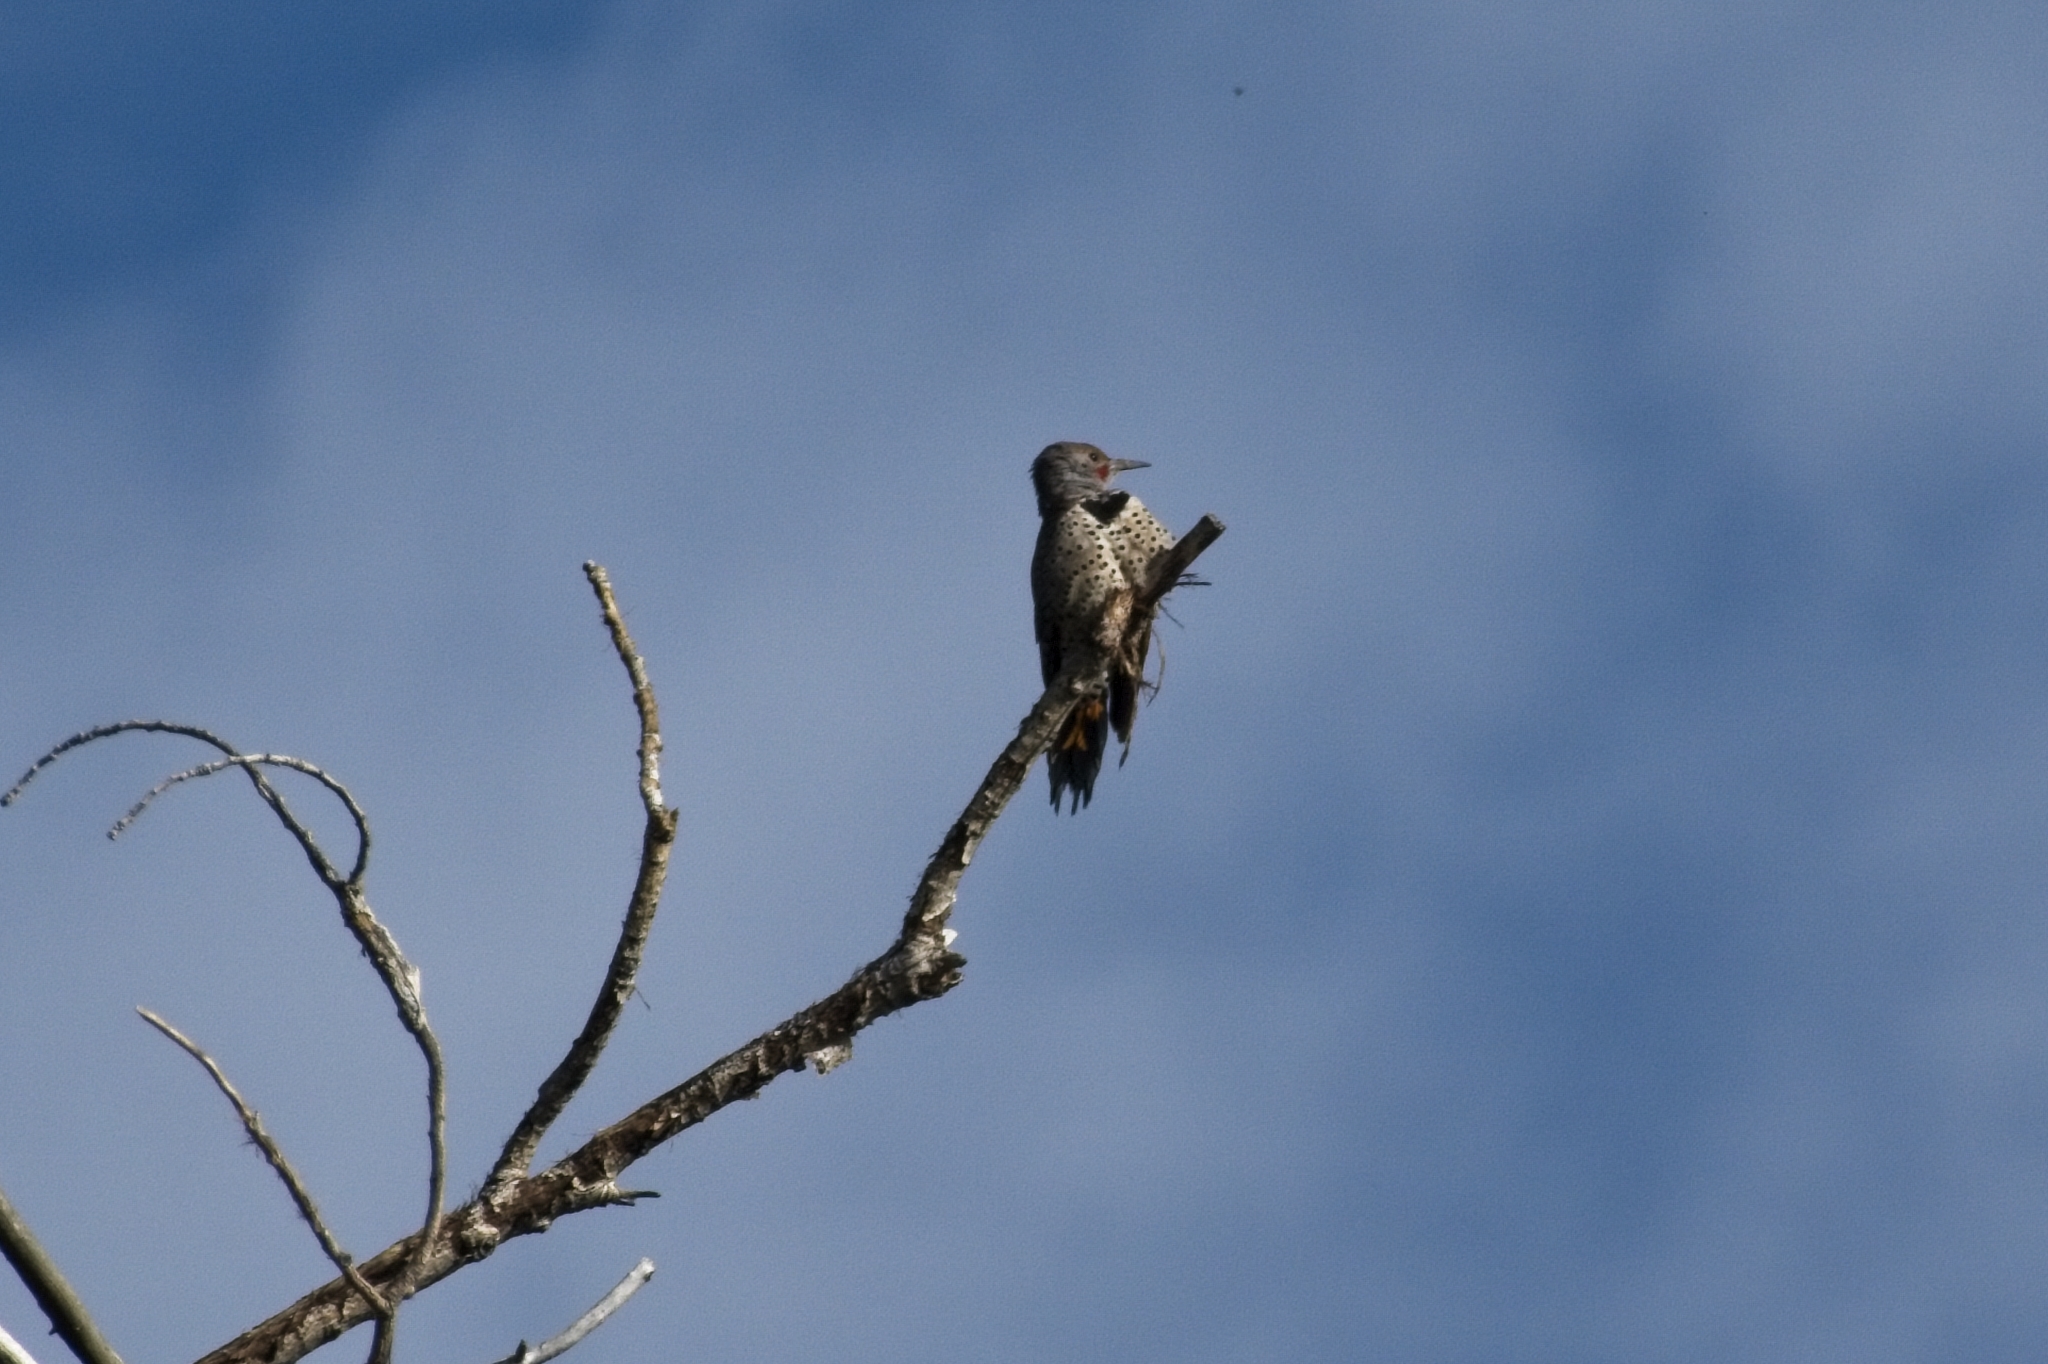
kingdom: Animalia
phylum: Chordata
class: Aves
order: Piciformes
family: Picidae
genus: Colaptes
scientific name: Colaptes auratus
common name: Northern flicker
